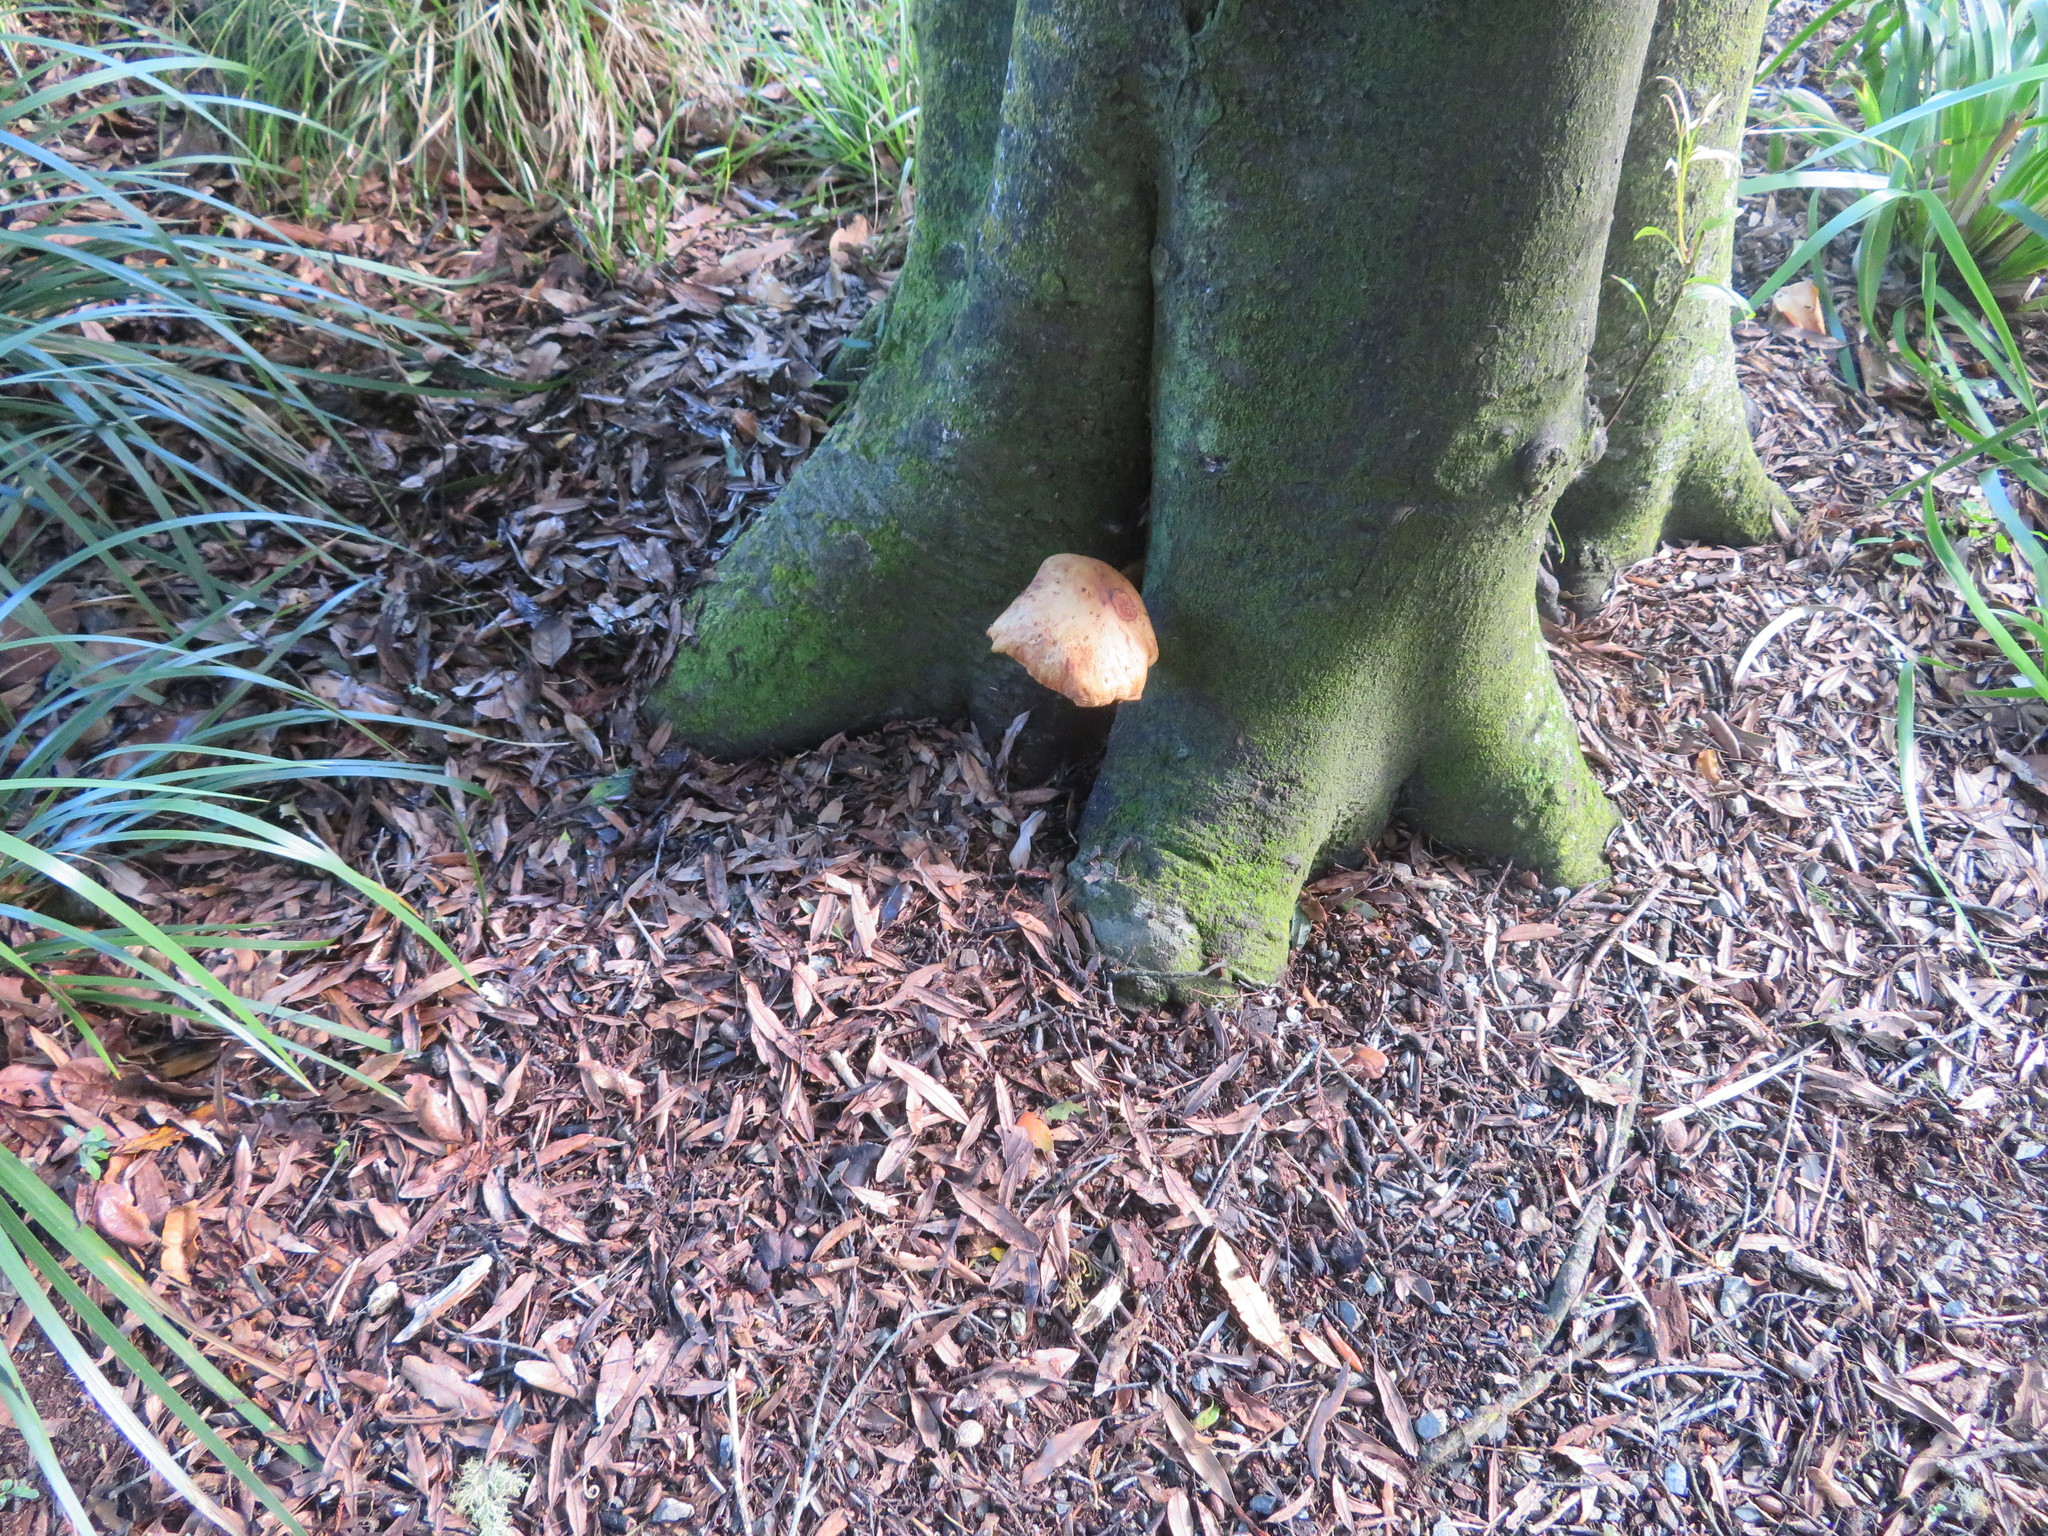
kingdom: Fungi
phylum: Basidiomycota
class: Agaricomycetes
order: Agaricales
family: Tubariaceae
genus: Cyclocybe
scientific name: Cyclocybe parasitica
